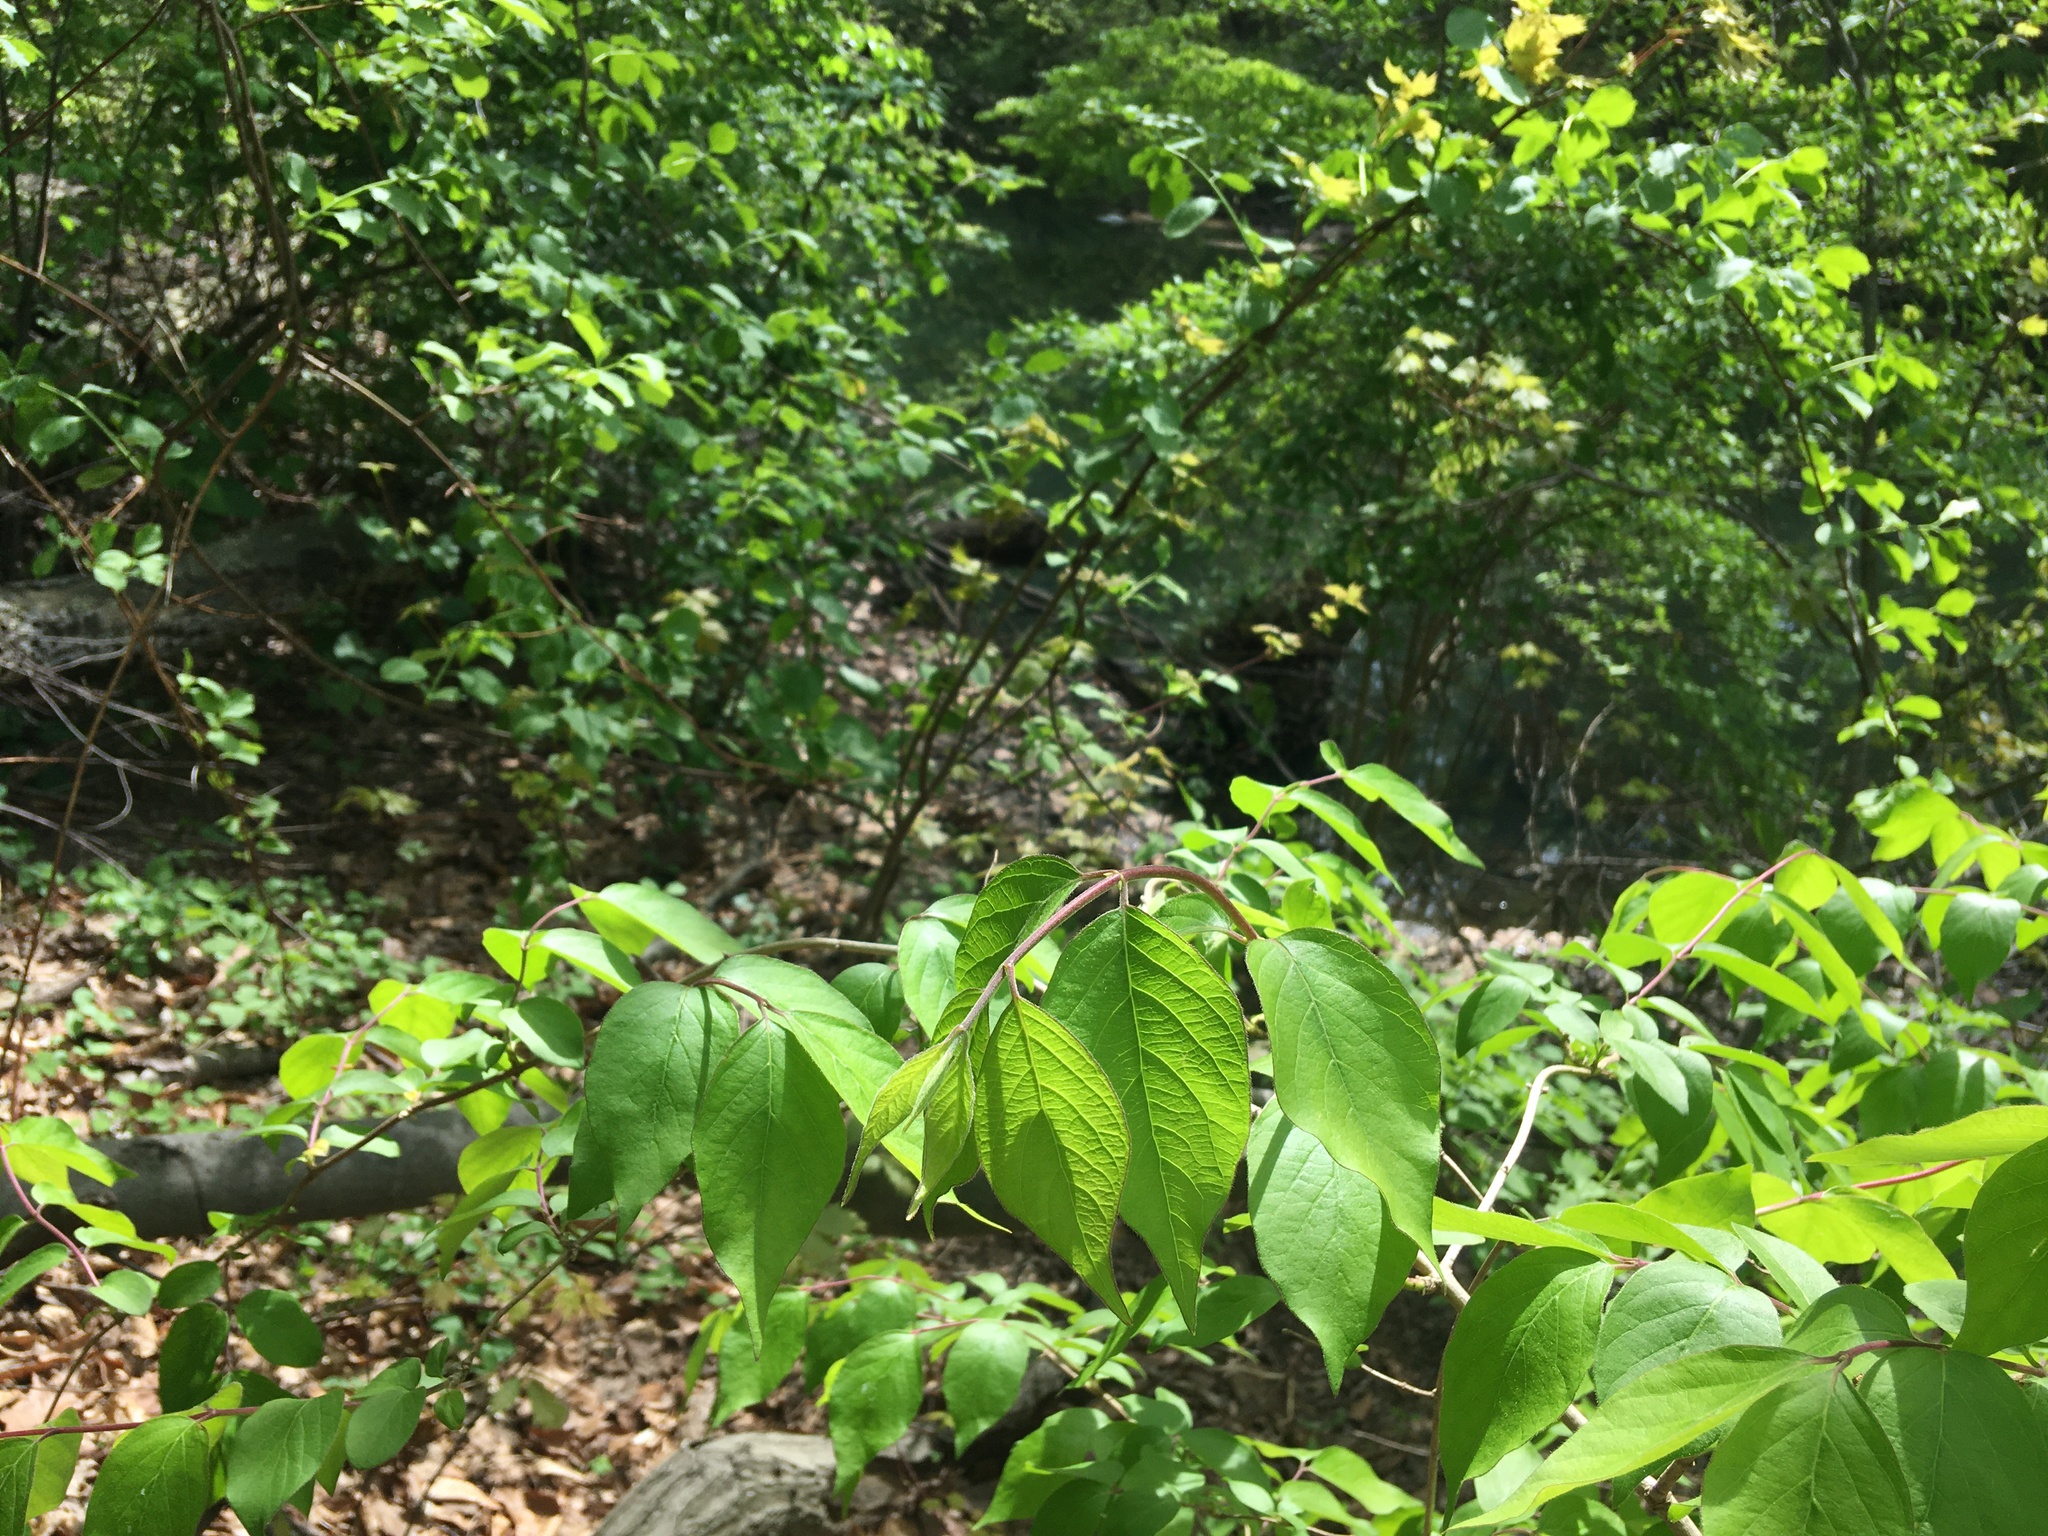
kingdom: Plantae
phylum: Tracheophyta
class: Magnoliopsida
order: Dipsacales
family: Caprifoliaceae
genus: Lonicera
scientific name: Lonicera maackii
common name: Amur honeysuckle
